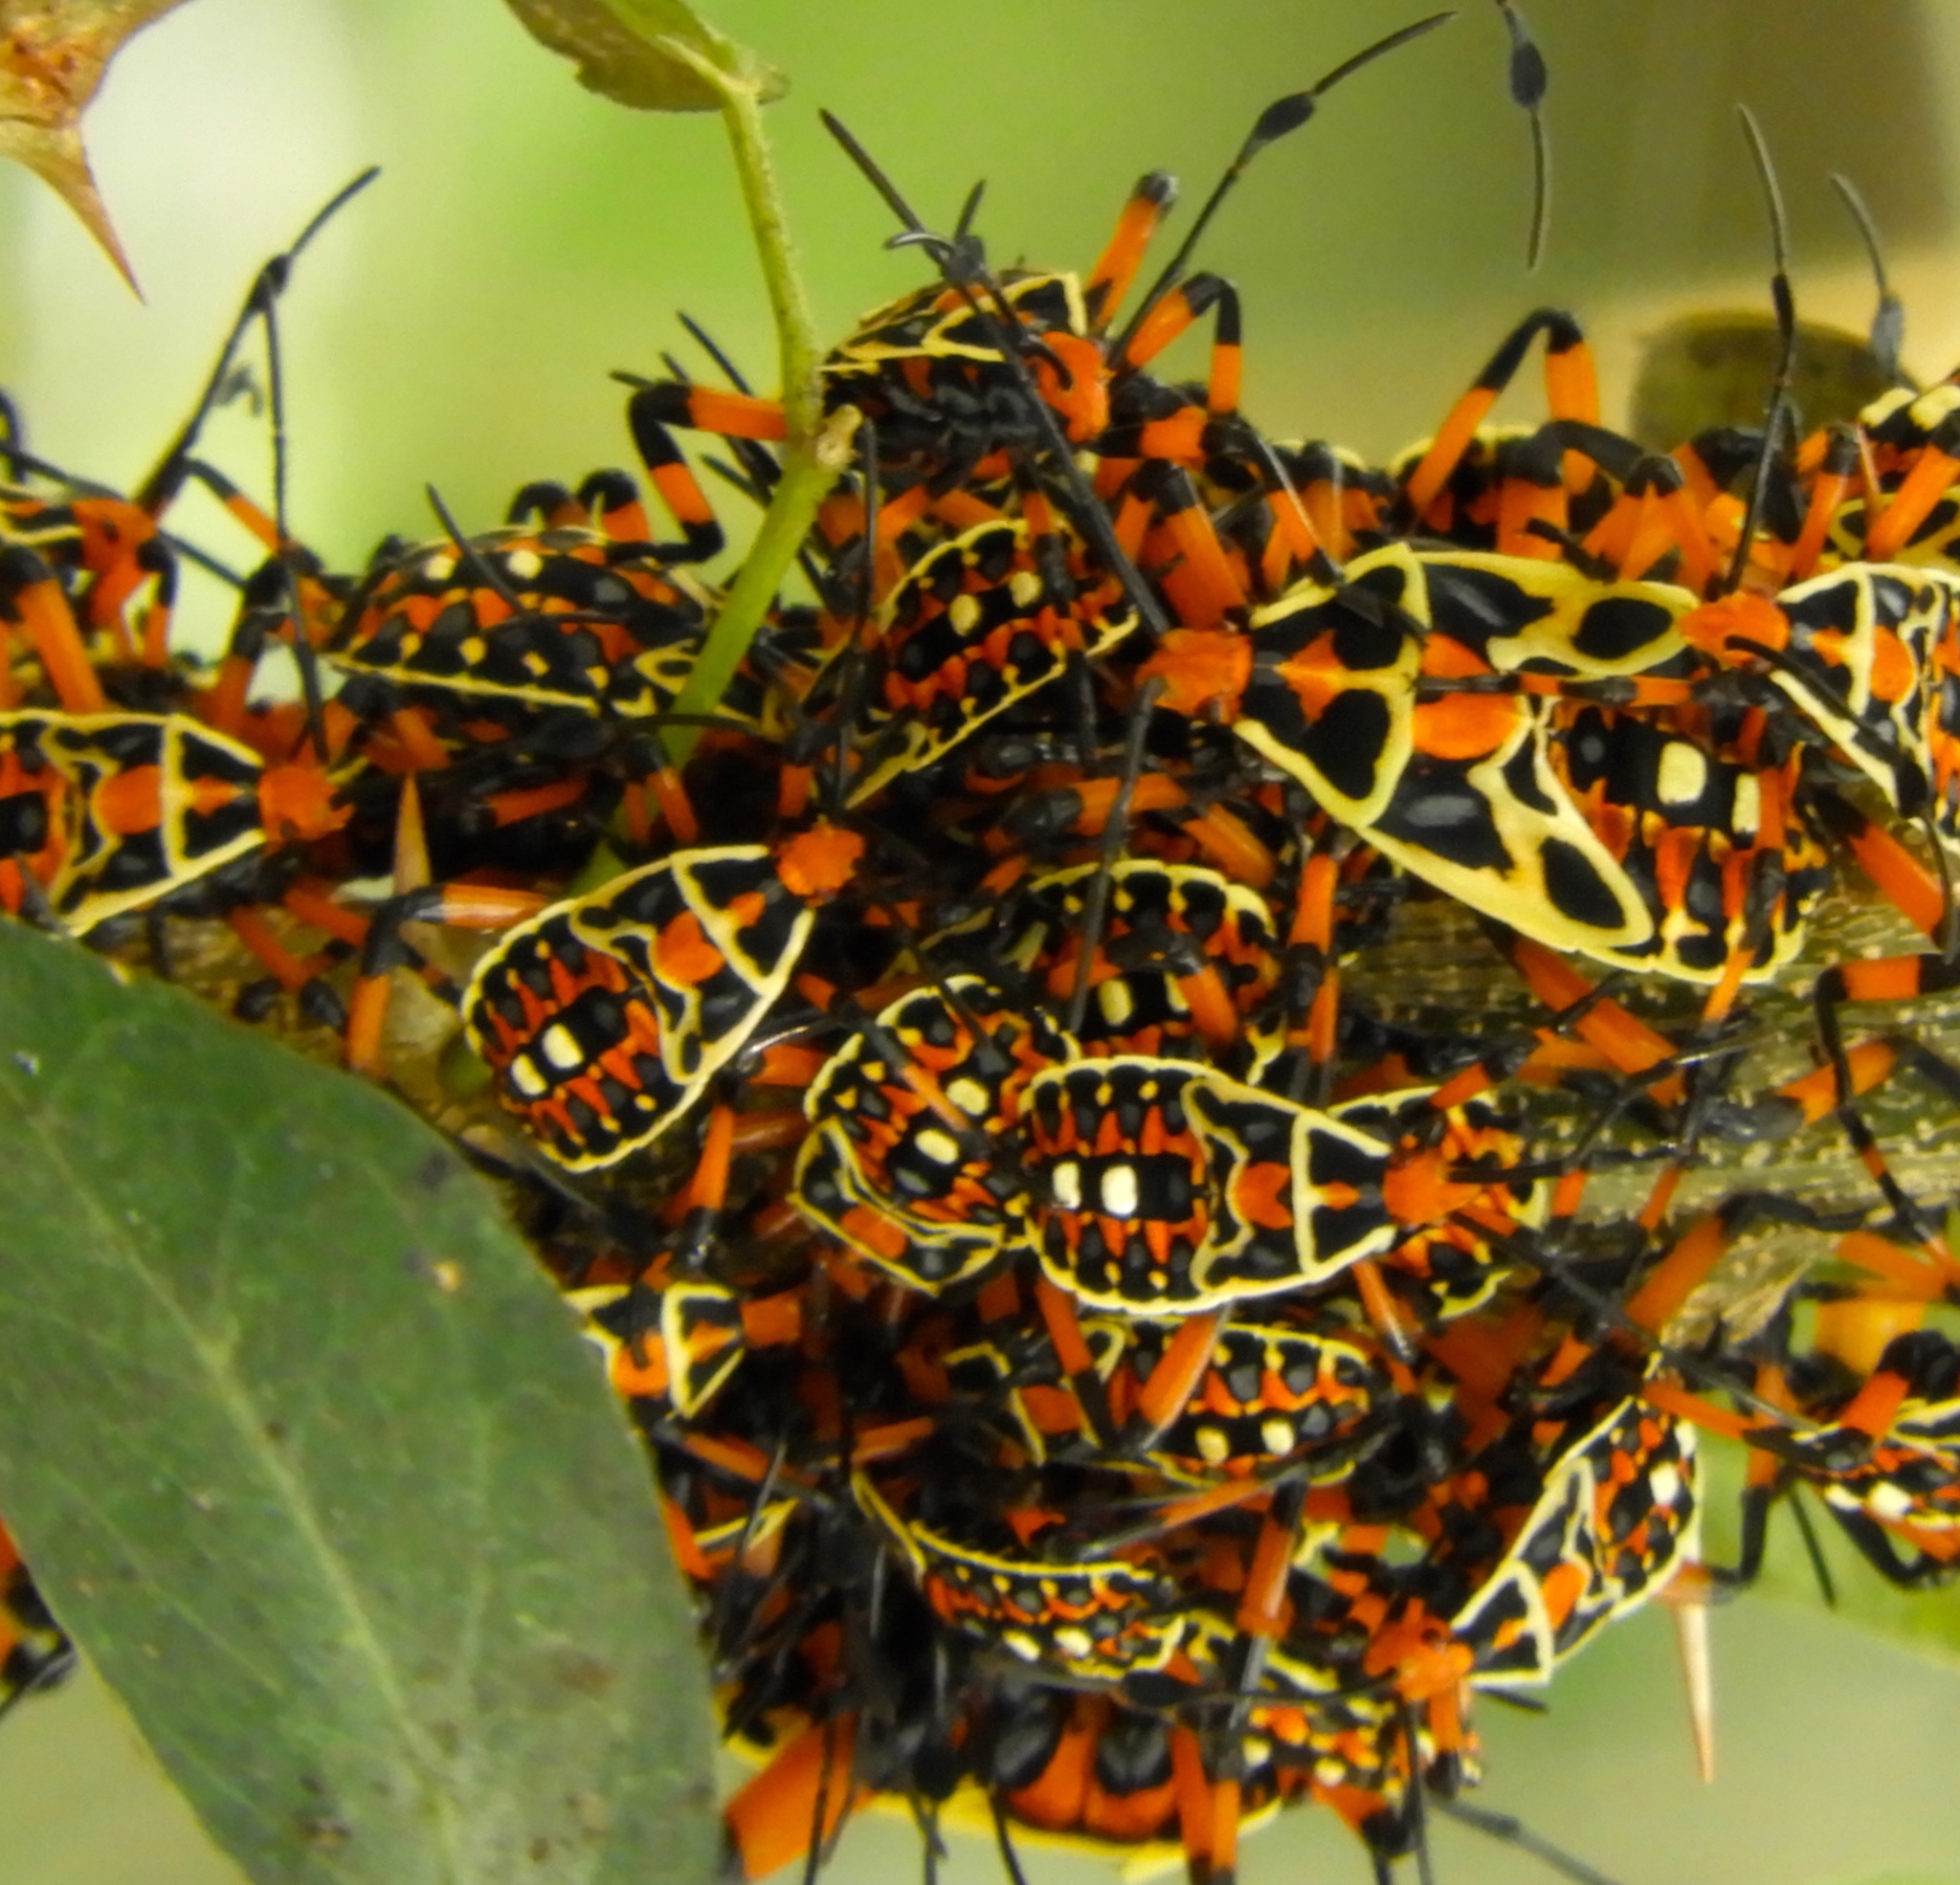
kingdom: Animalia
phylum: Arthropoda
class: Insecta
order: Hemiptera
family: Coreidae
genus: Pachylis
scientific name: Pachylis nervosus
